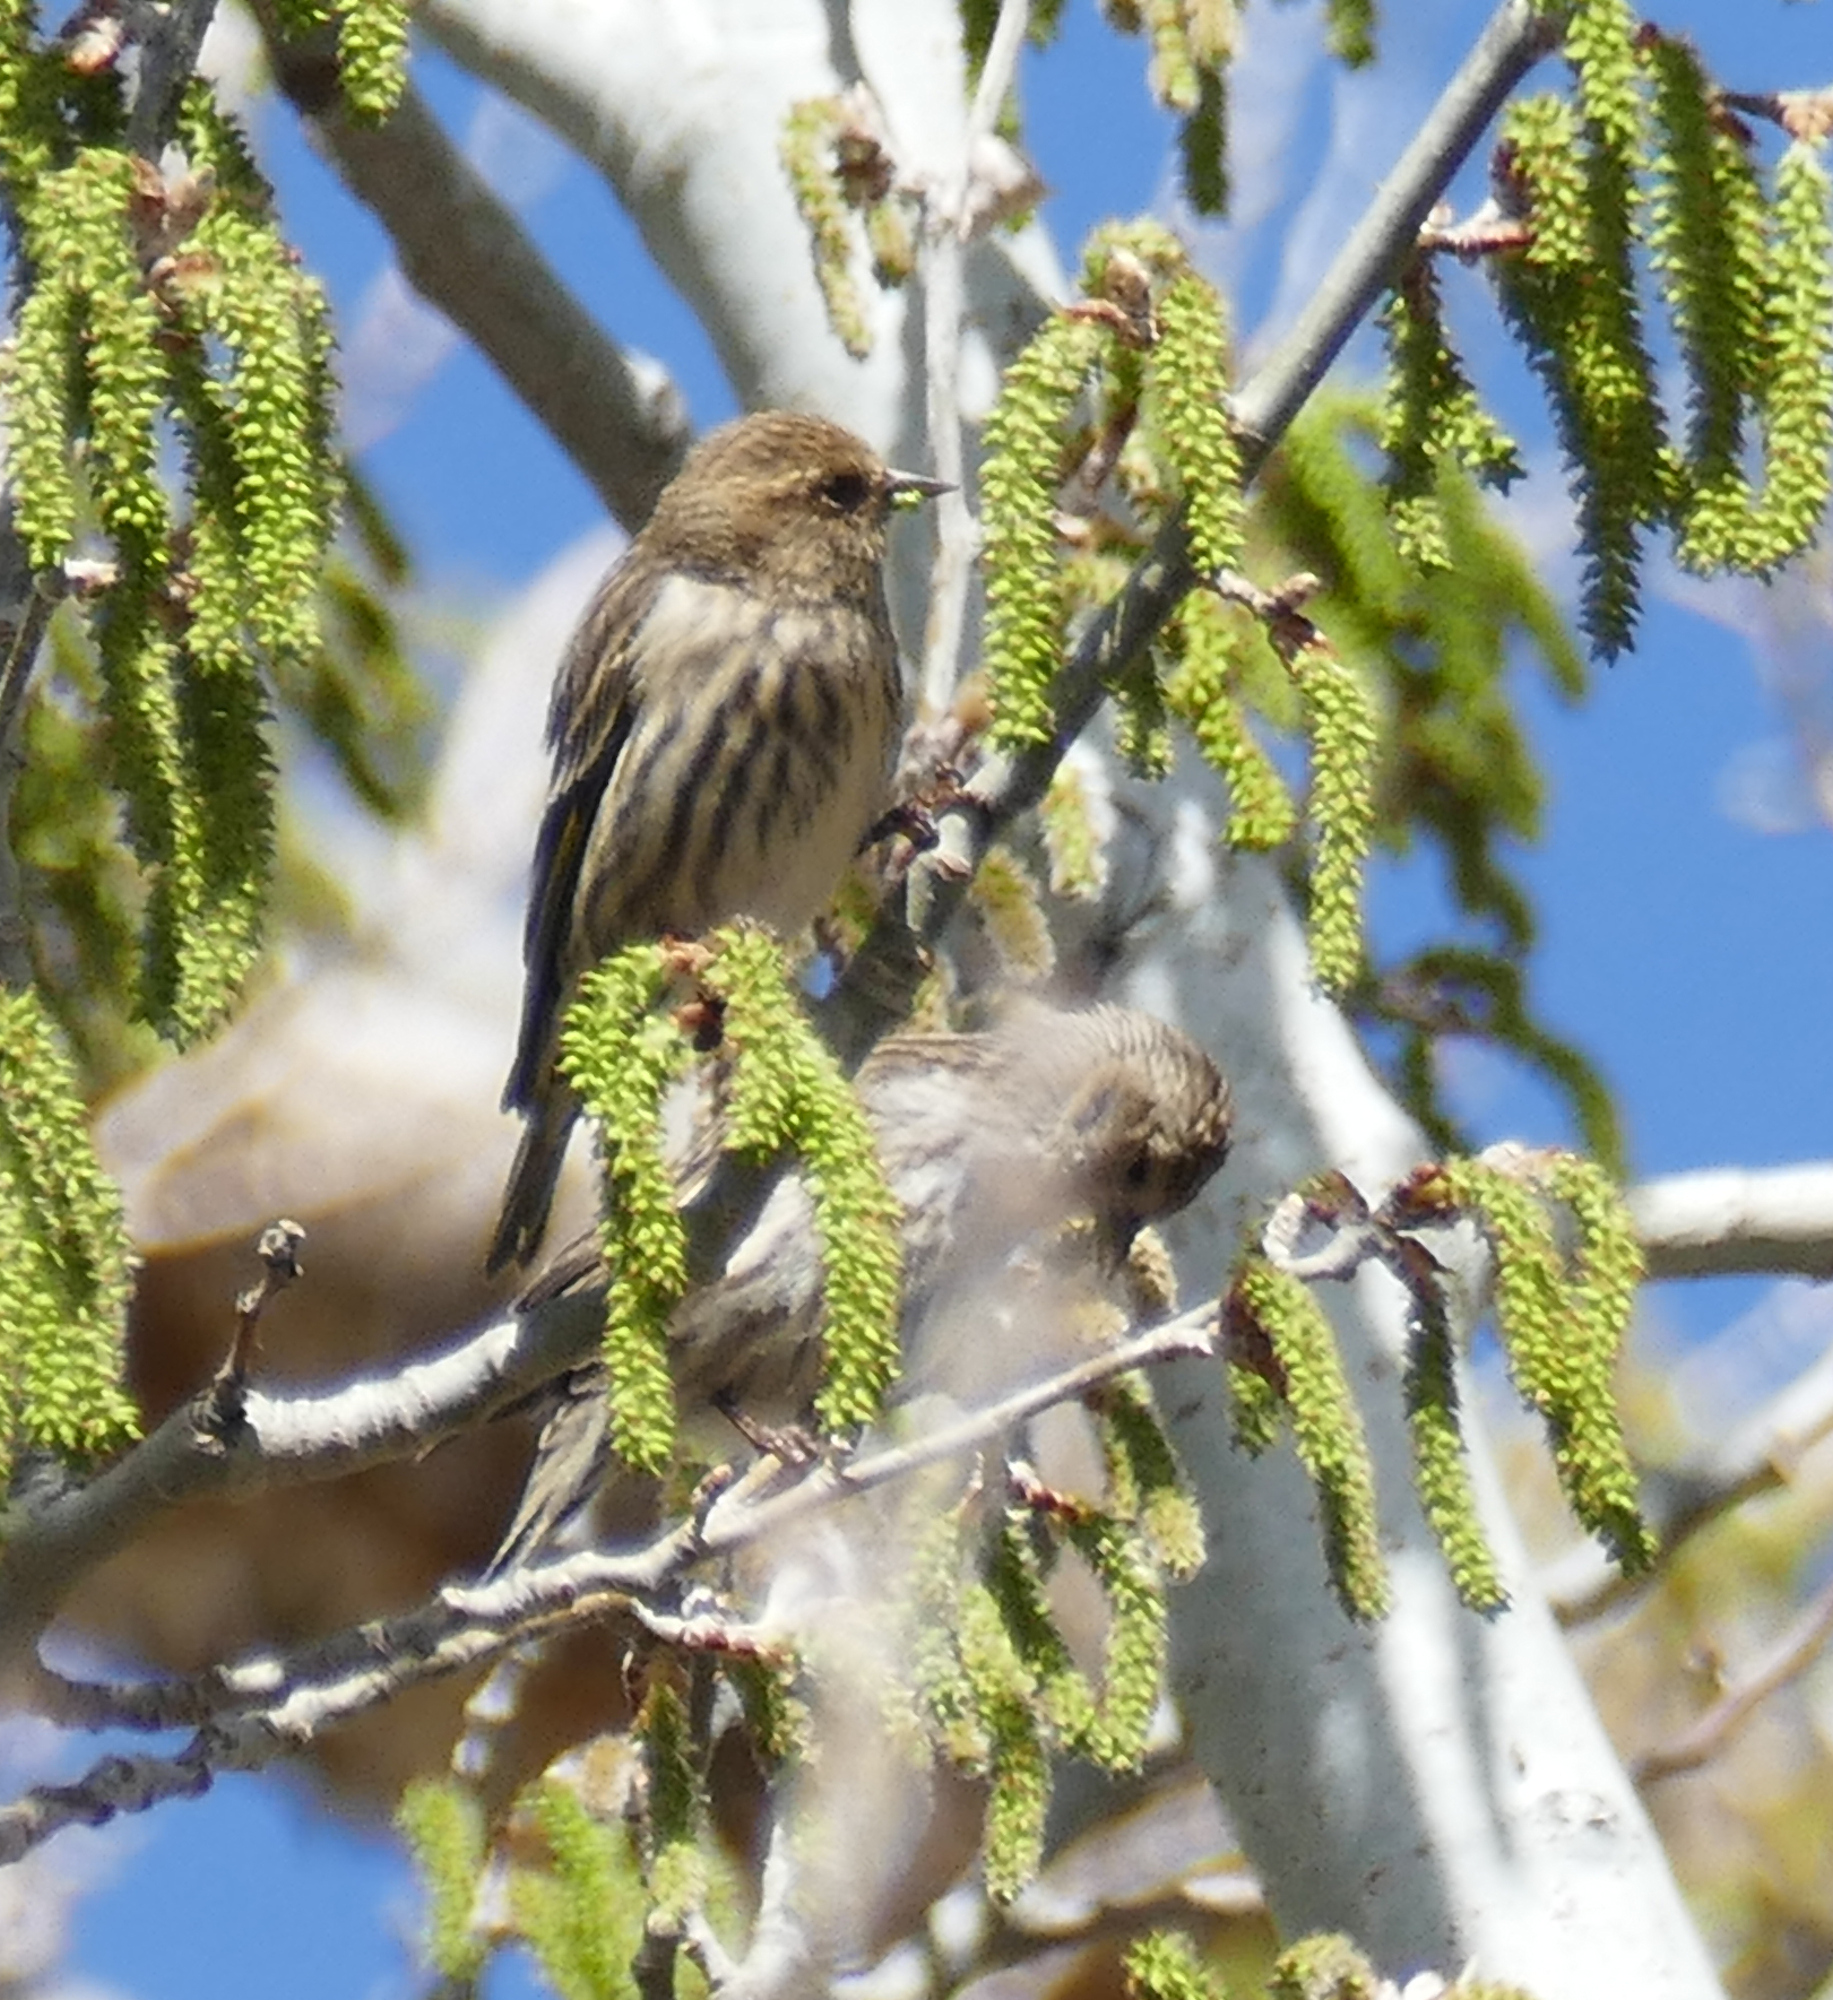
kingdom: Animalia
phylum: Chordata
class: Aves
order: Passeriformes
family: Fringillidae
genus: Spinus
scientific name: Spinus pinus
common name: Pine siskin
